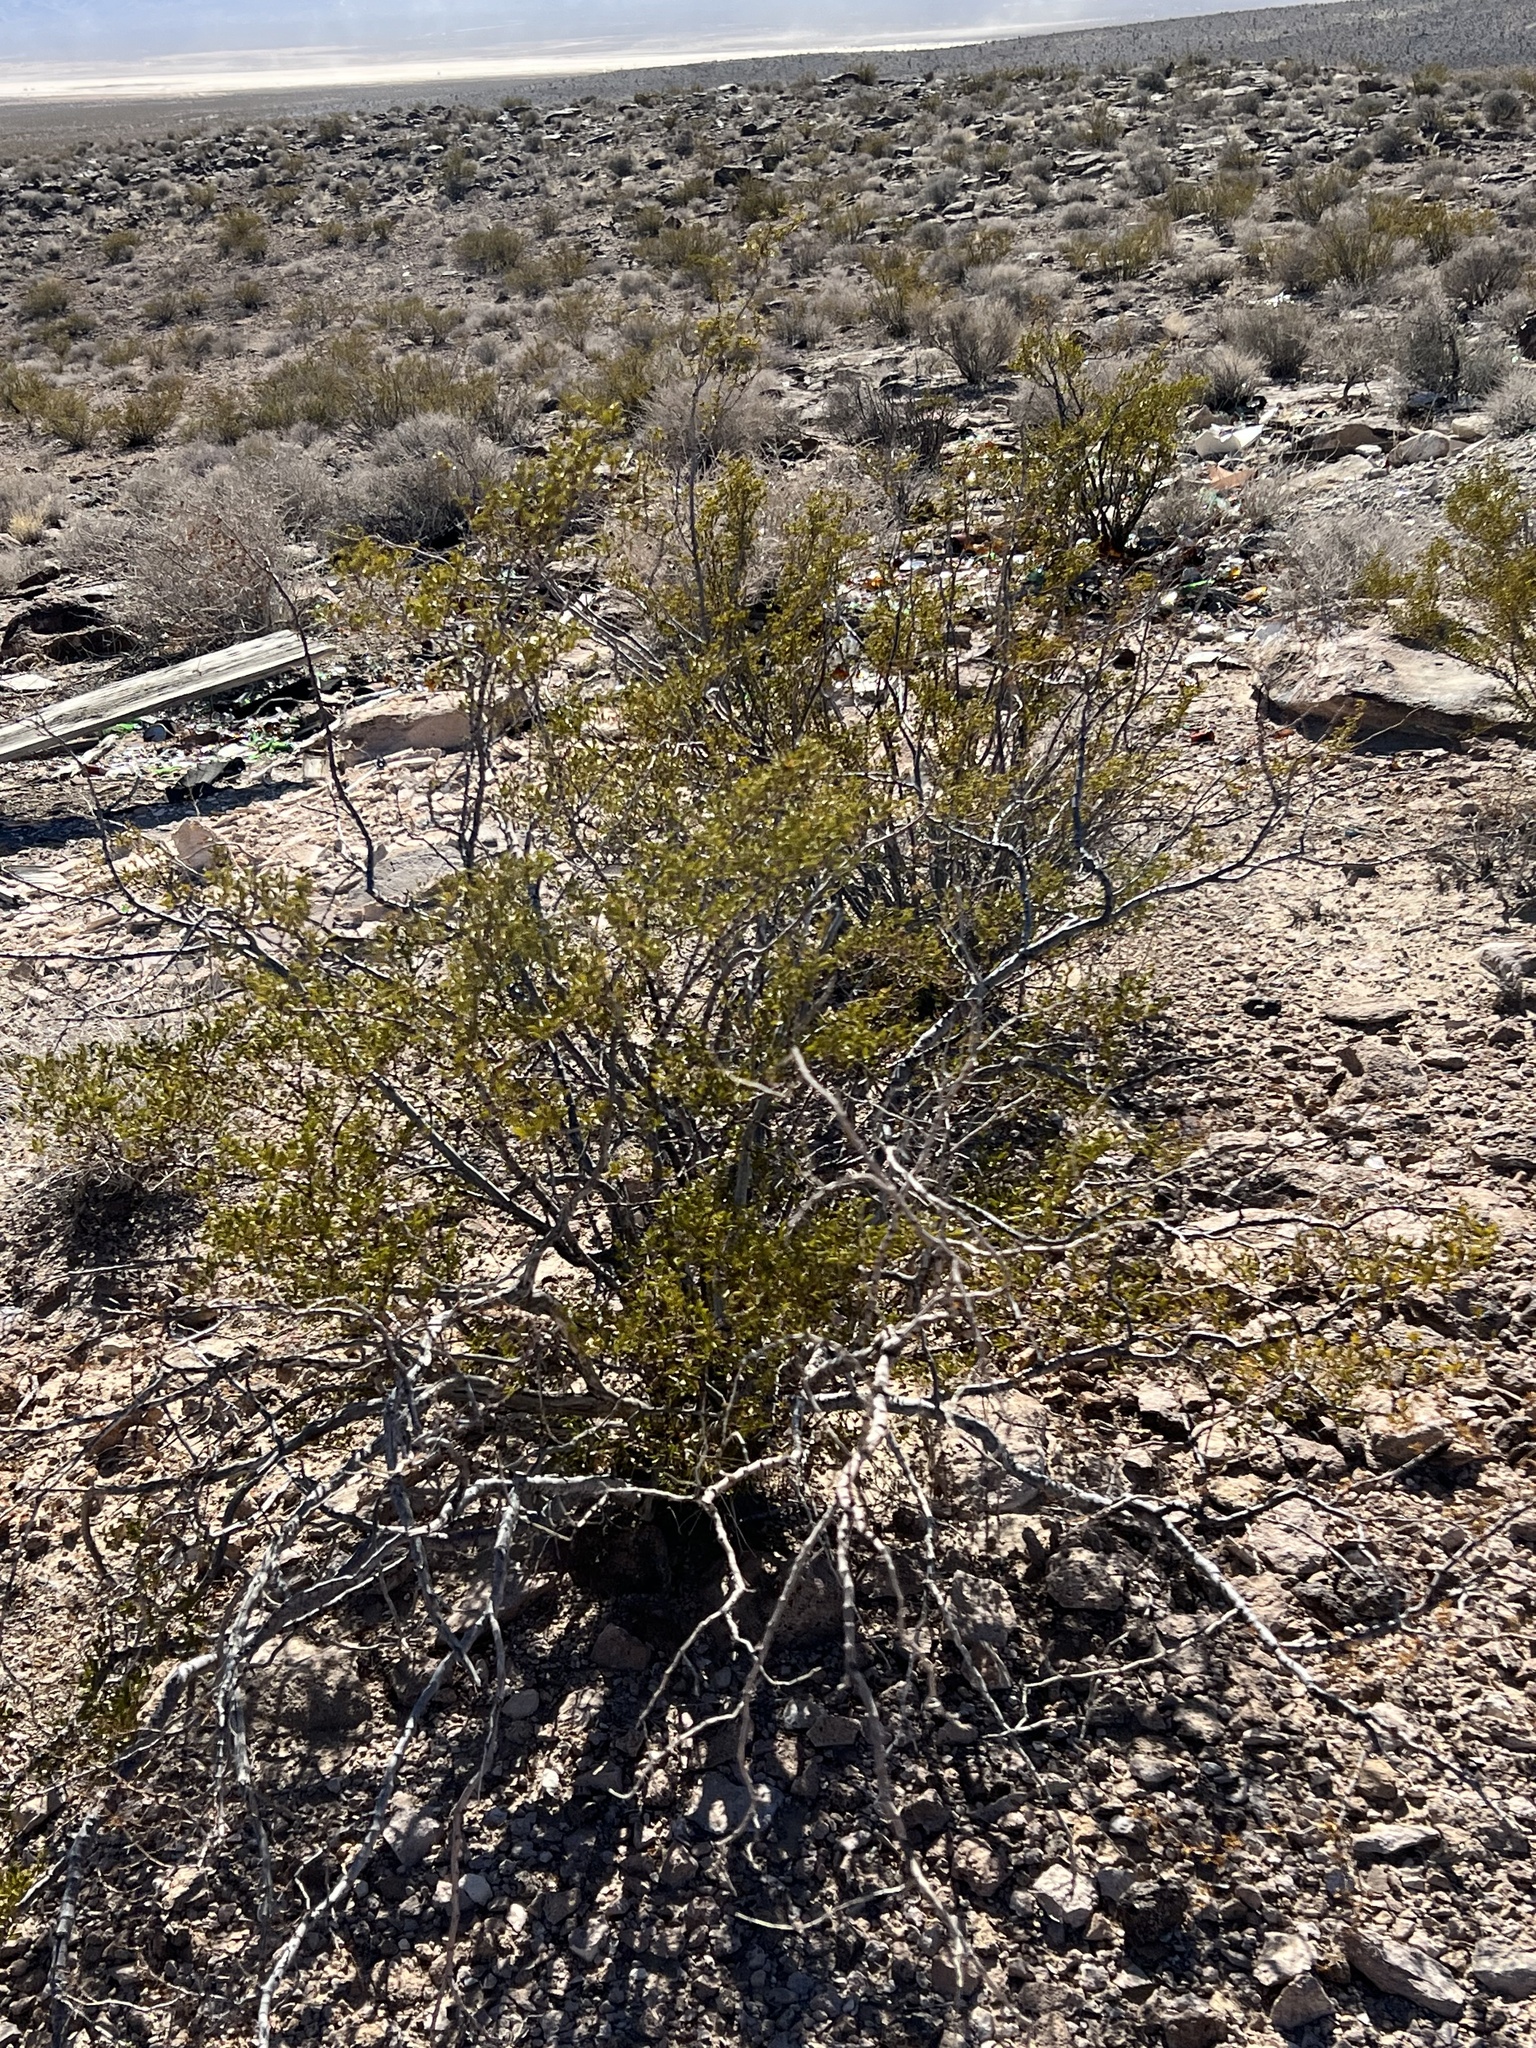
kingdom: Plantae
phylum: Tracheophyta
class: Magnoliopsida
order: Zygophyllales
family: Zygophyllaceae
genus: Larrea
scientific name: Larrea tridentata
